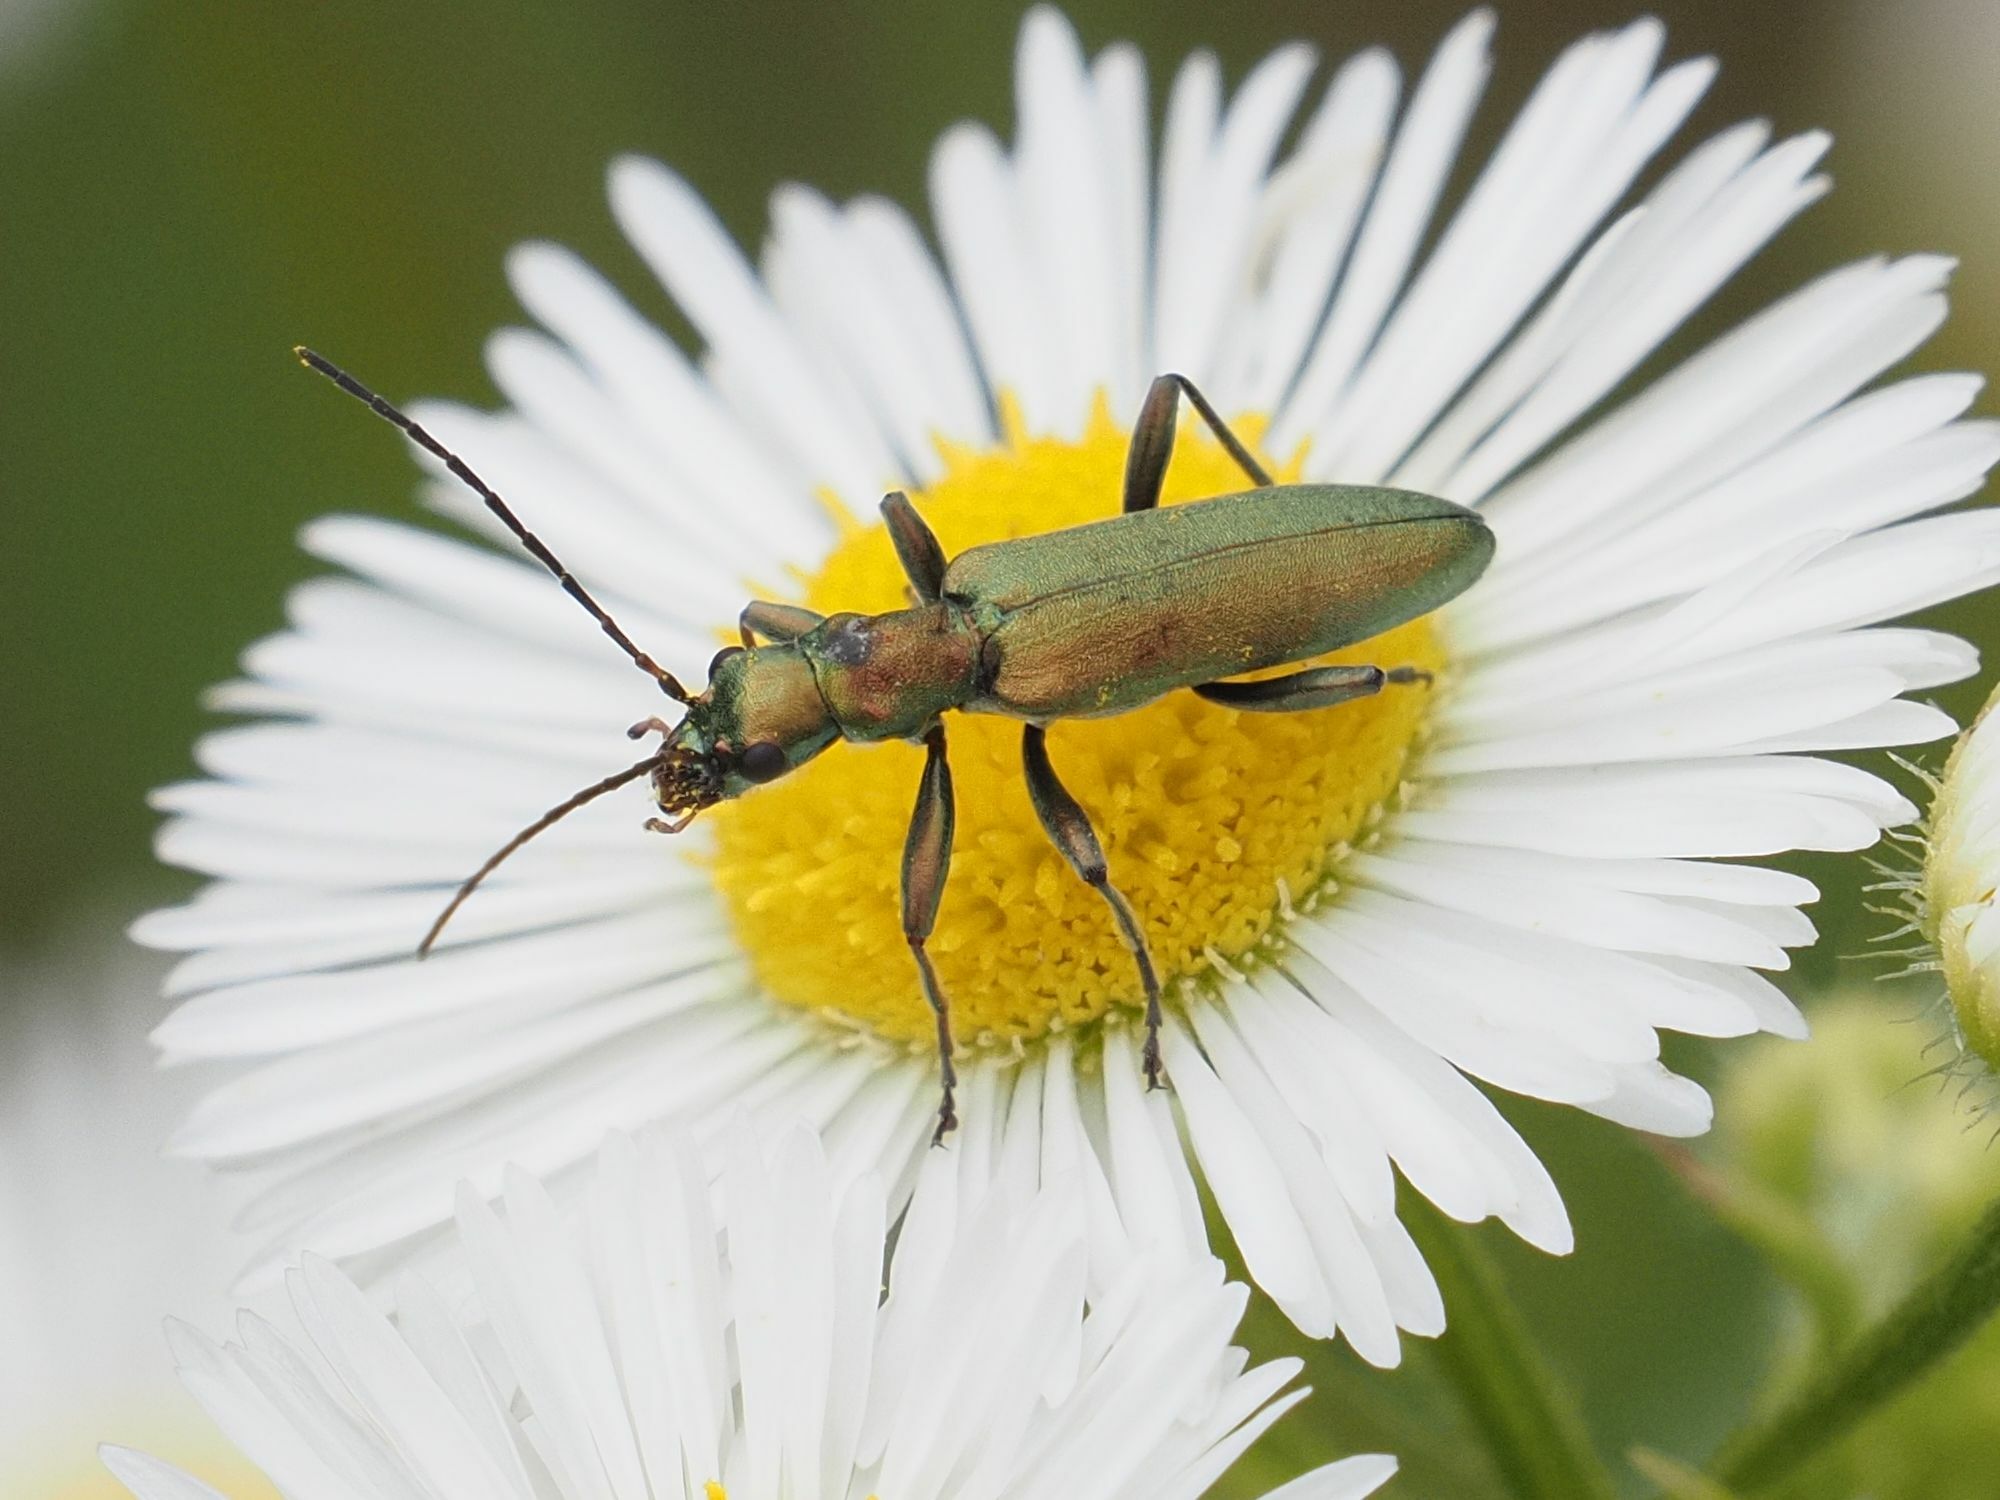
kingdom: Animalia
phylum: Arthropoda
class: Insecta
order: Coleoptera
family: Oedemeridae
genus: Chrysanthia
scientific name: Chrysanthia viridissima
